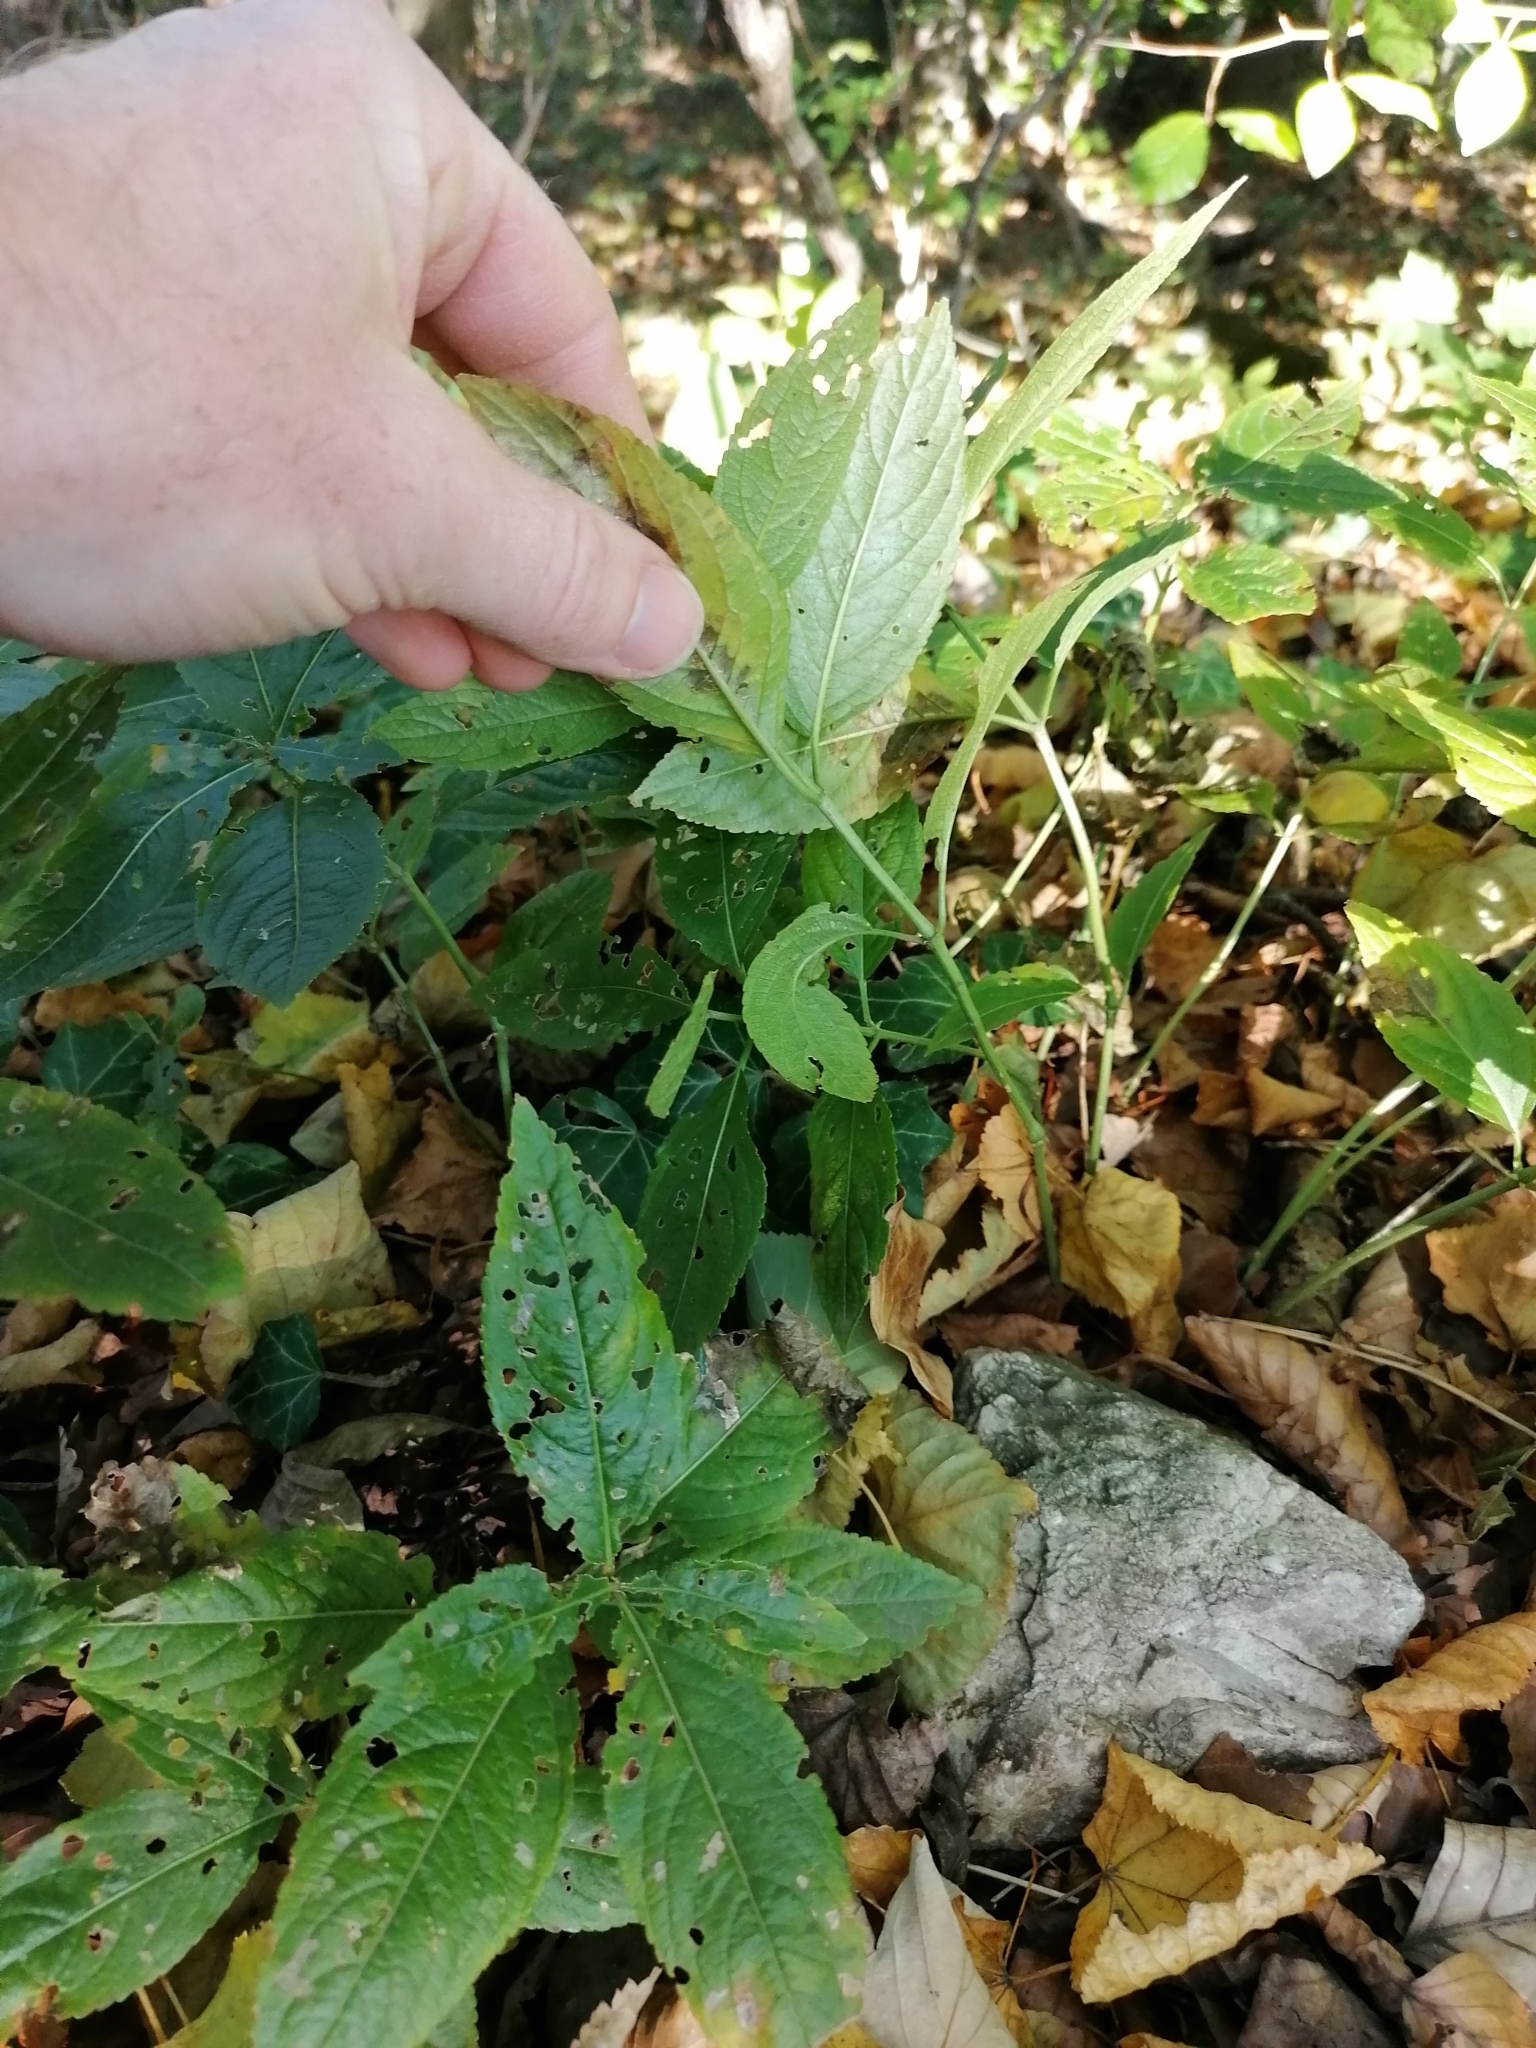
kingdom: Plantae
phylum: Tracheophyta
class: Magnoliopsida
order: Malpighiales
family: Euphorbiaceae
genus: Mercurialis
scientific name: Mercurialis perennis
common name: Dog mercury
